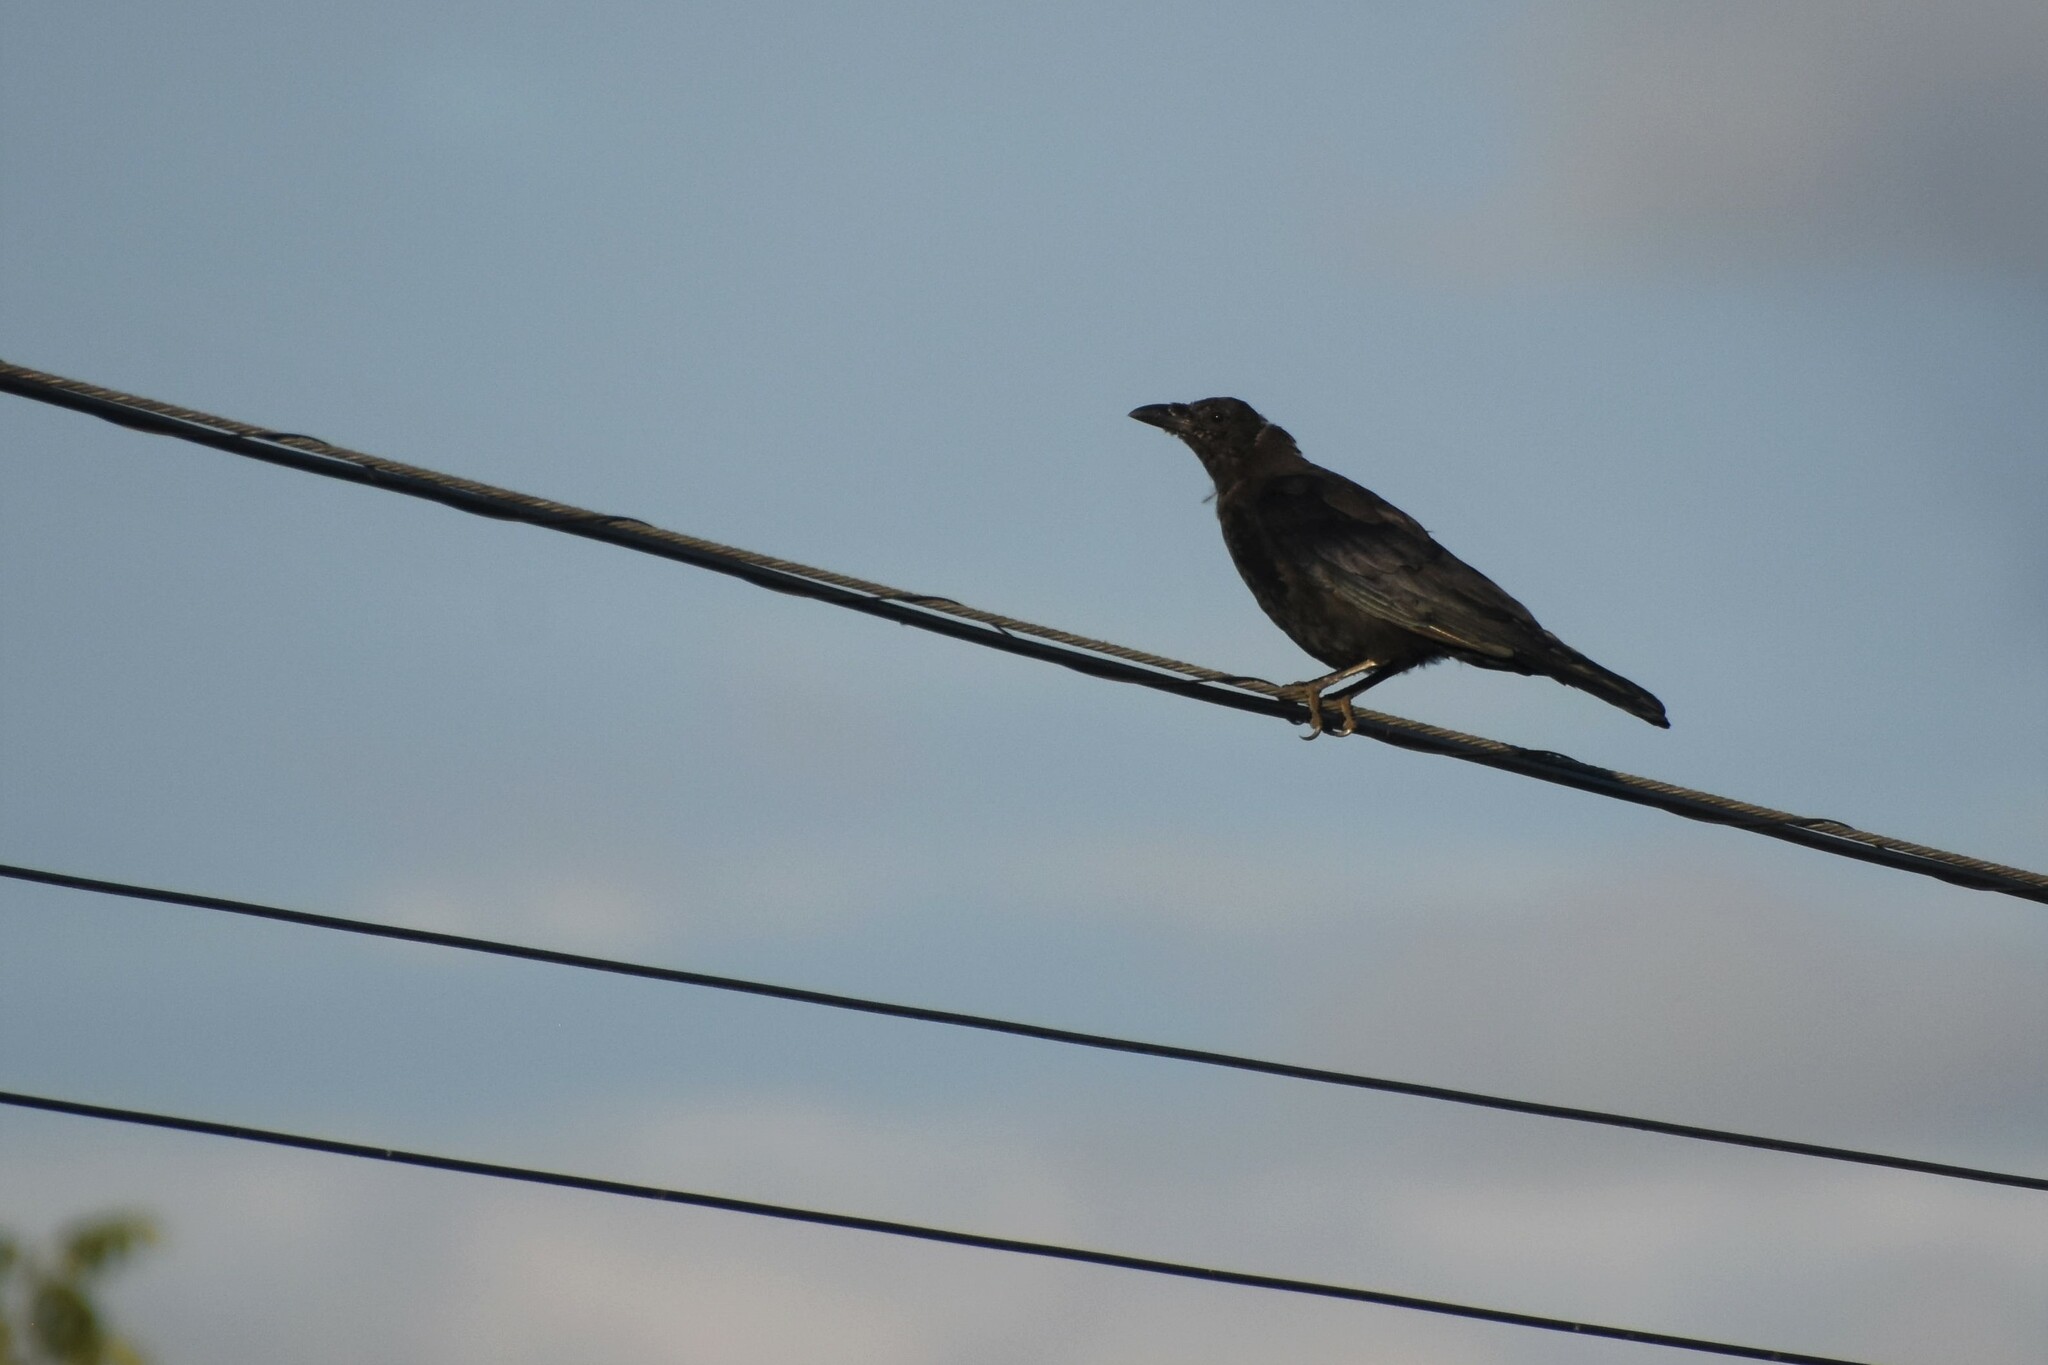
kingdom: Animalia
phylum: Chordata
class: Aves
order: Passeriformes
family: Corvidae
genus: Corvus
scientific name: Corvus corone
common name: Carrion crow
